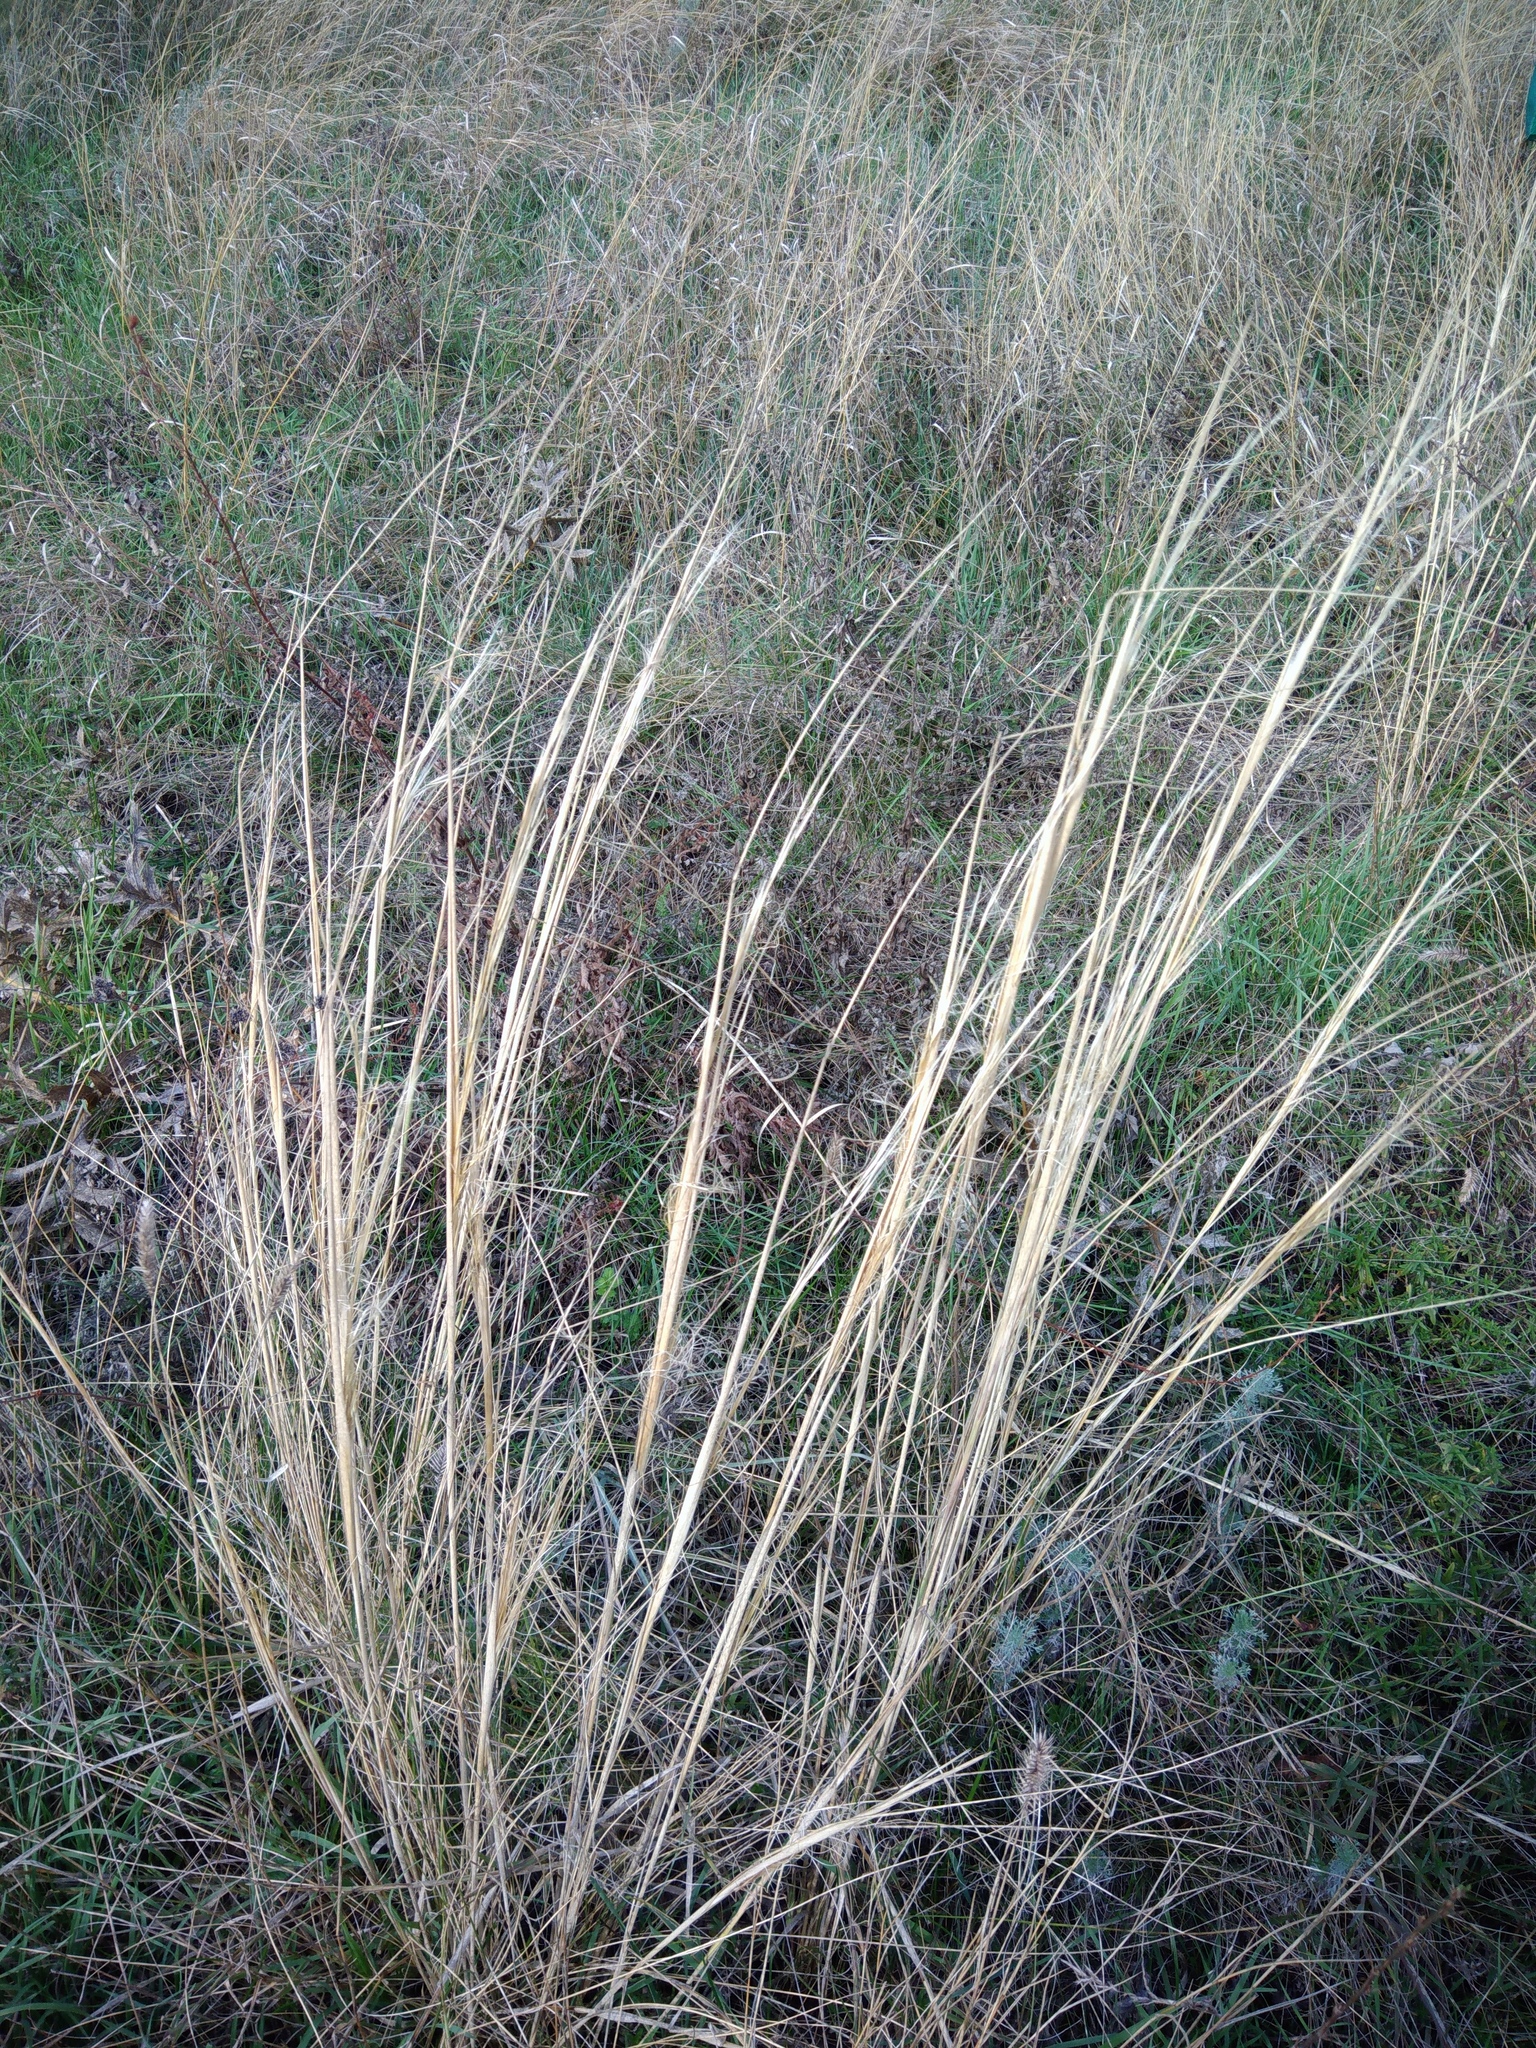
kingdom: Plantae
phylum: Tracheophyta
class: Liliopsida
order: Poales
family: Poaceae
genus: Stipa
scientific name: Stipa capillata
